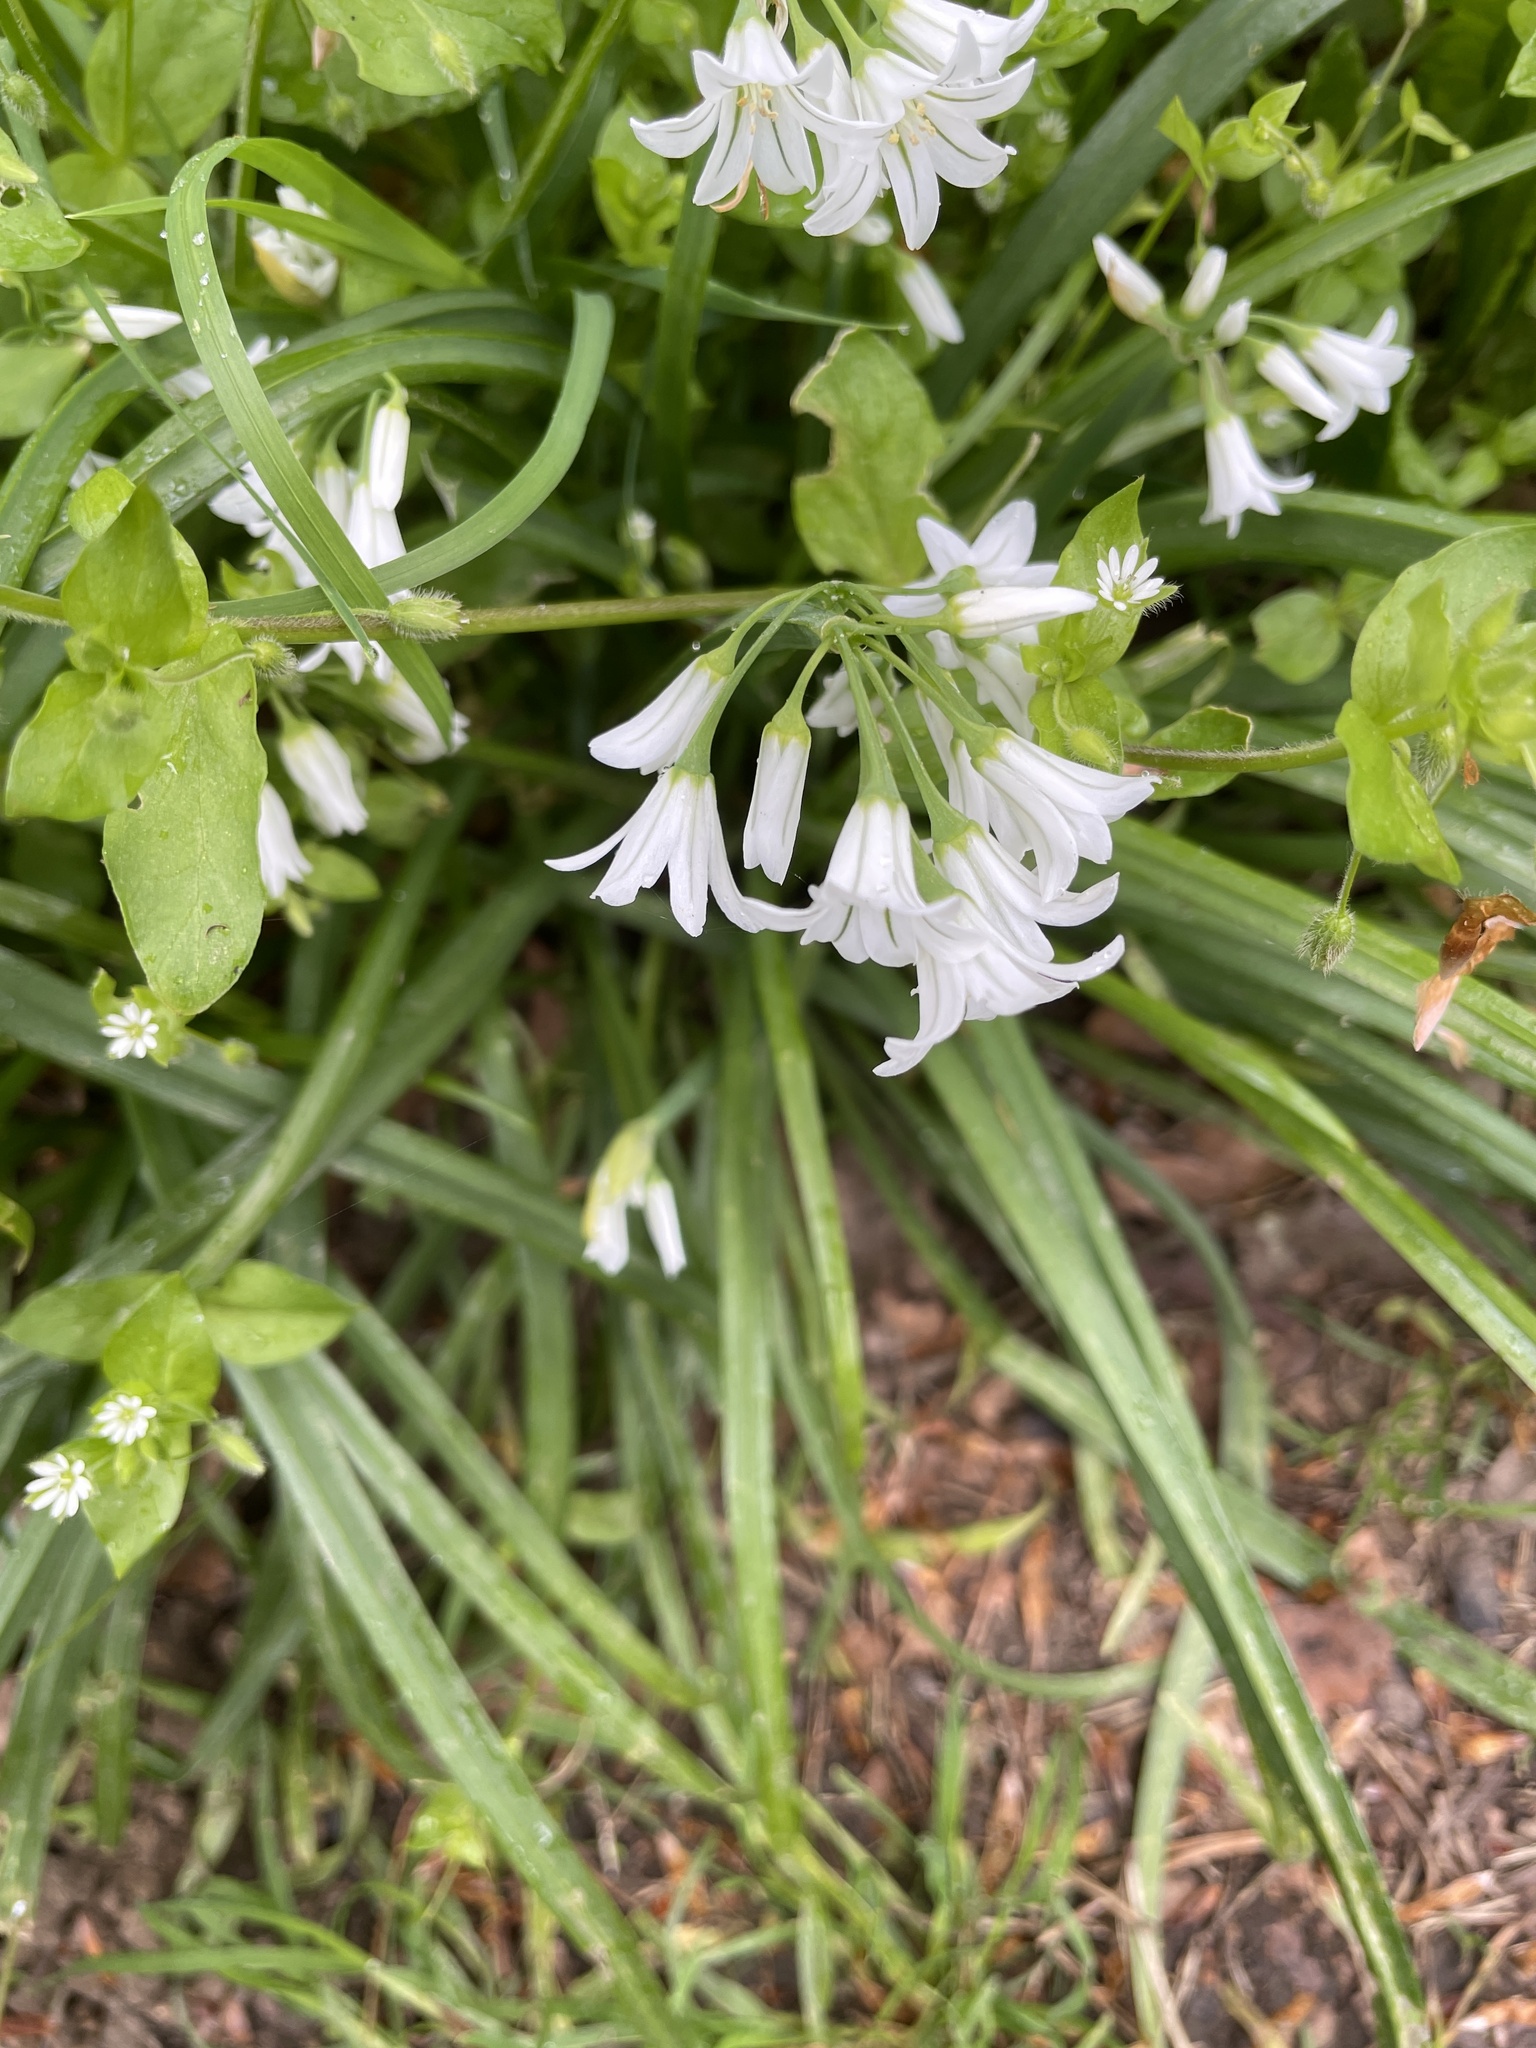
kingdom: Plantae
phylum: Tracheophyta
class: Liliopsida
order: Asparagales
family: Amaryllidaceae
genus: Allium
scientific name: Allium triquetrum
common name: Three-cornered garlic
